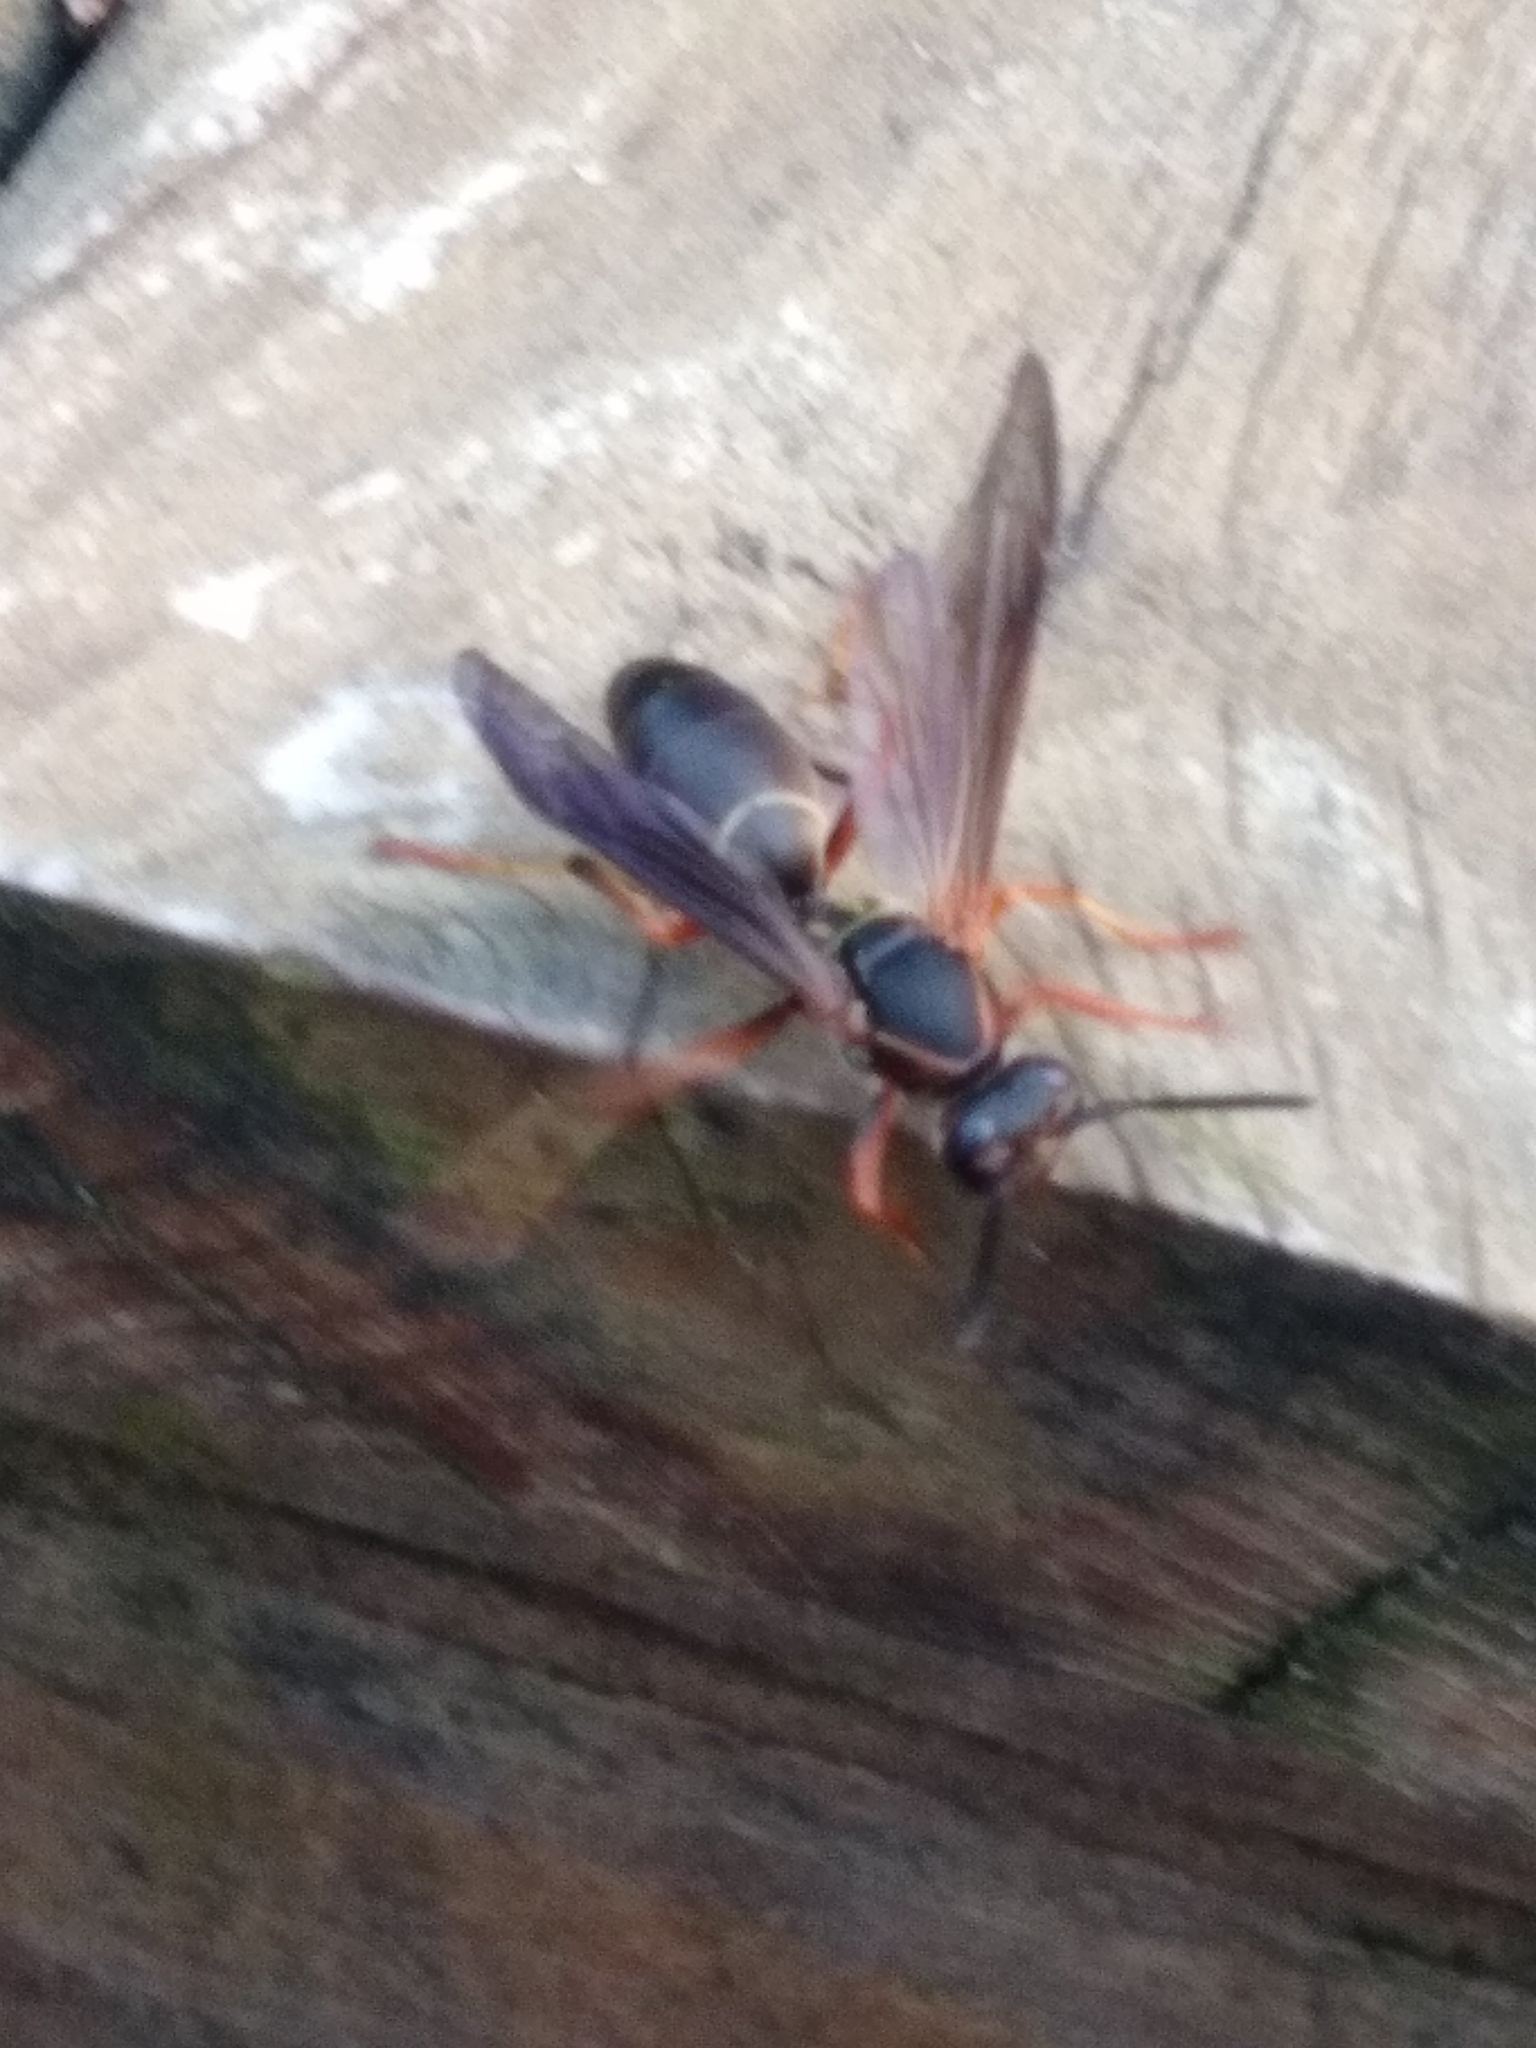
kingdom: Animalia
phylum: Arthropoda
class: Insecta
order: Hymenoptera
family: Eumenidae
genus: Polistes
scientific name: Polistes fuscatus
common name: Dark paper wasp
